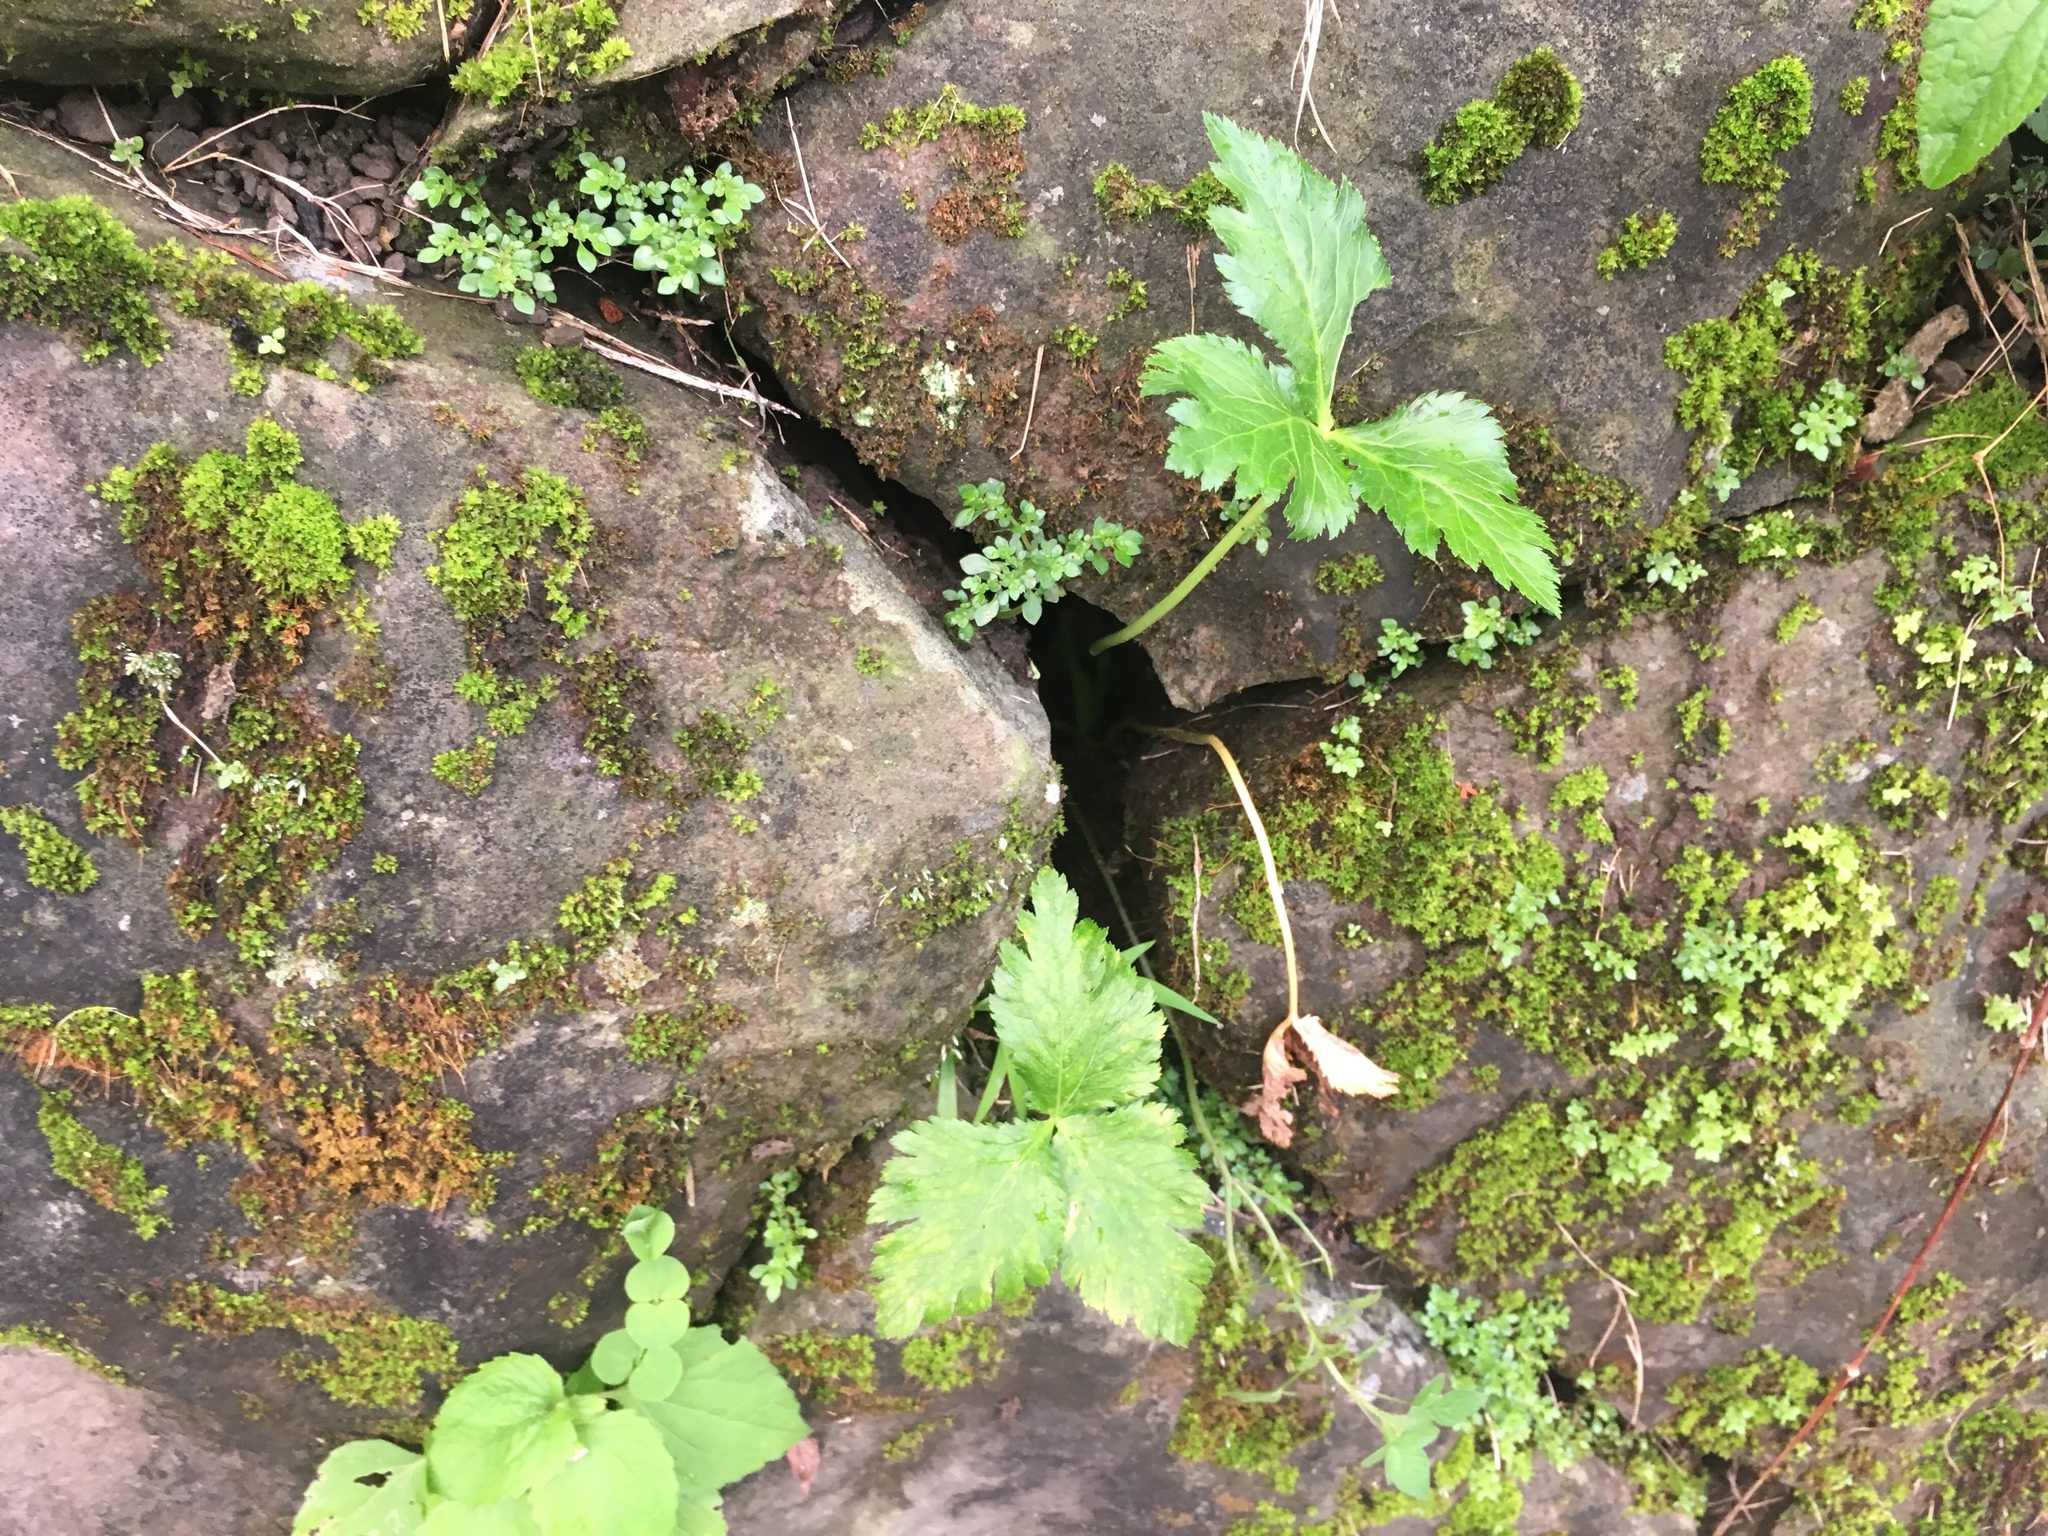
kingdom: Plantae
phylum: Tracheophyta
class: Magnoliopsida
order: Apiales
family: Apiaceae
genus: Cryptotaenia
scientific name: Cryptotaenia japonica
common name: Japanese cryptotaenia
